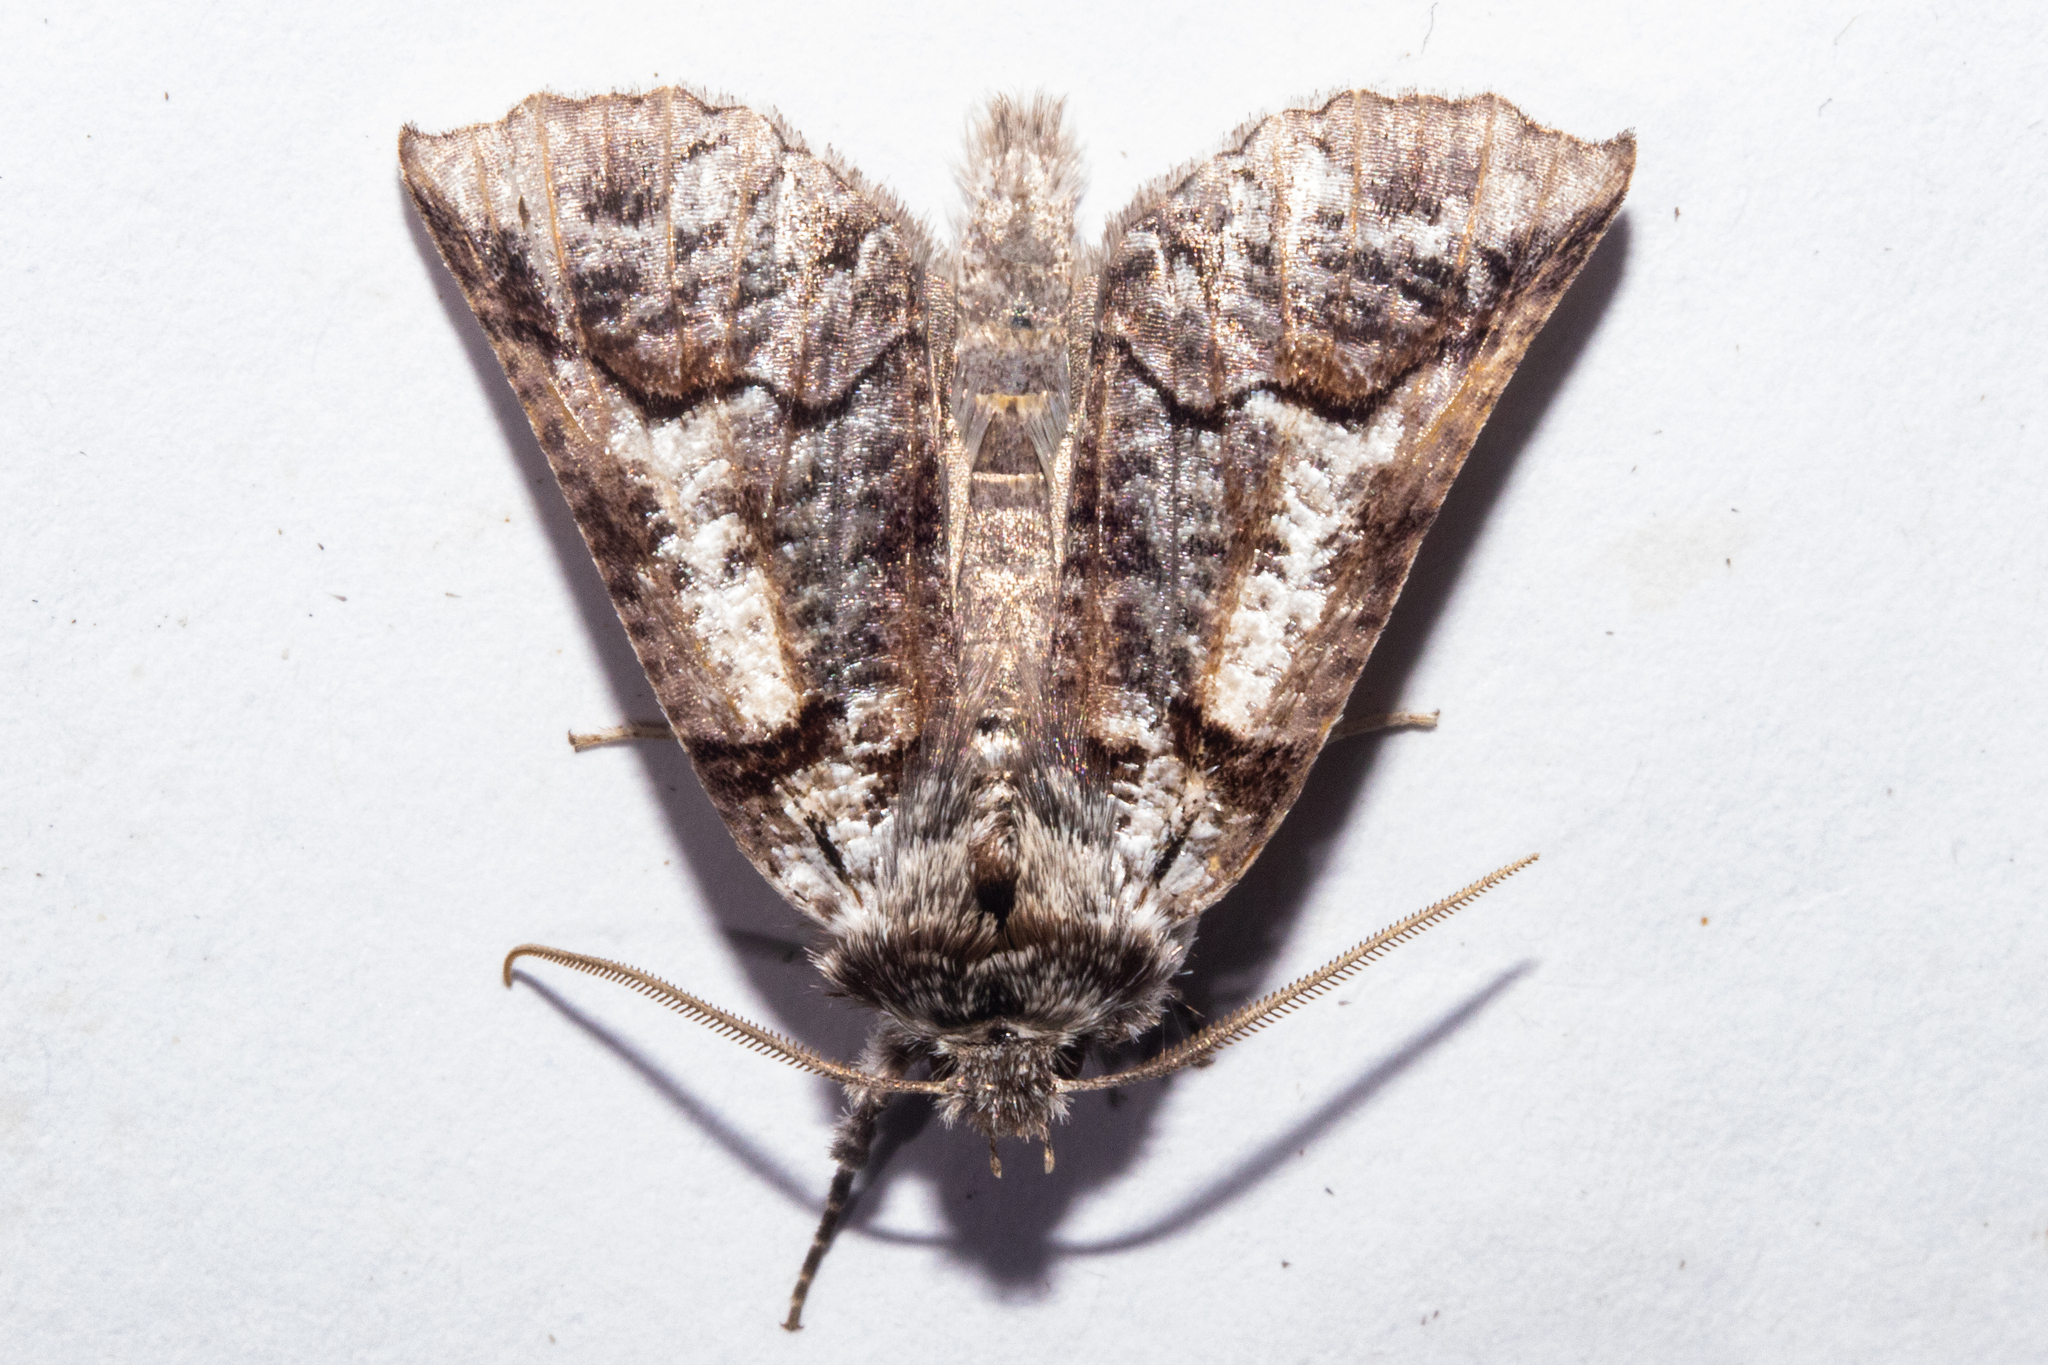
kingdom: Animalia
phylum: Arthropoda
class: Insecta
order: Lepidoptera
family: Geometridae
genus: Declana
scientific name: Declana
